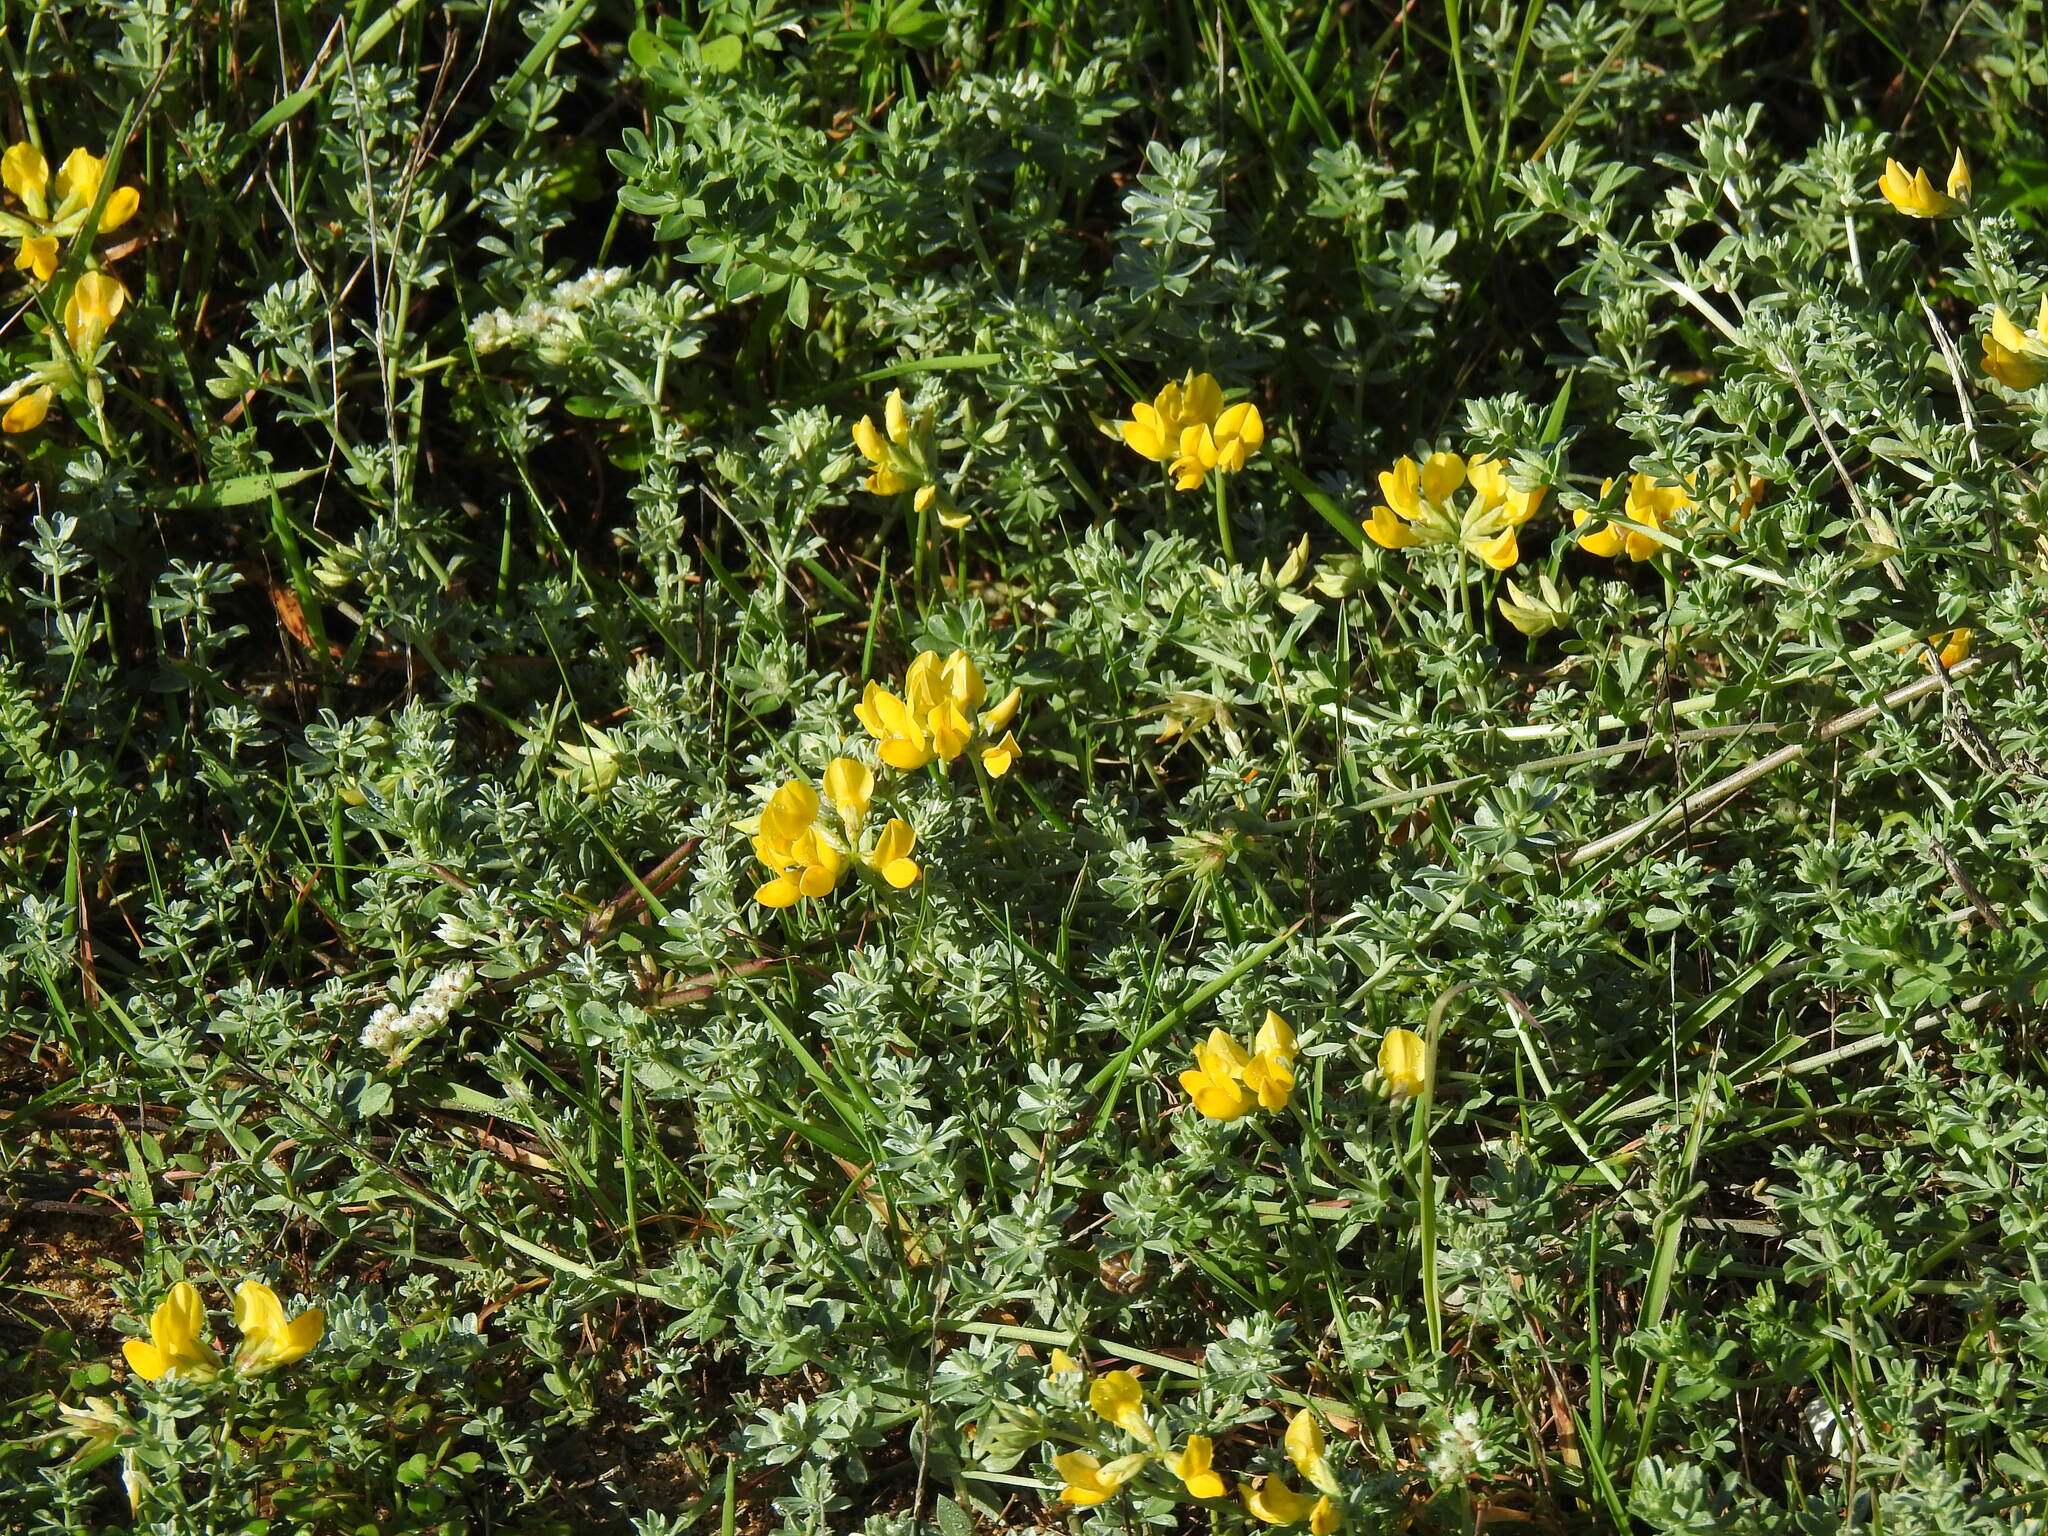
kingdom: Plantae
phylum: Tracheophyta
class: Magnoliopsida
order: Fabales
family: Fabaceae
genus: Lotus
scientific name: Lotus creticus
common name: Cretan bird's-foot trefoil
